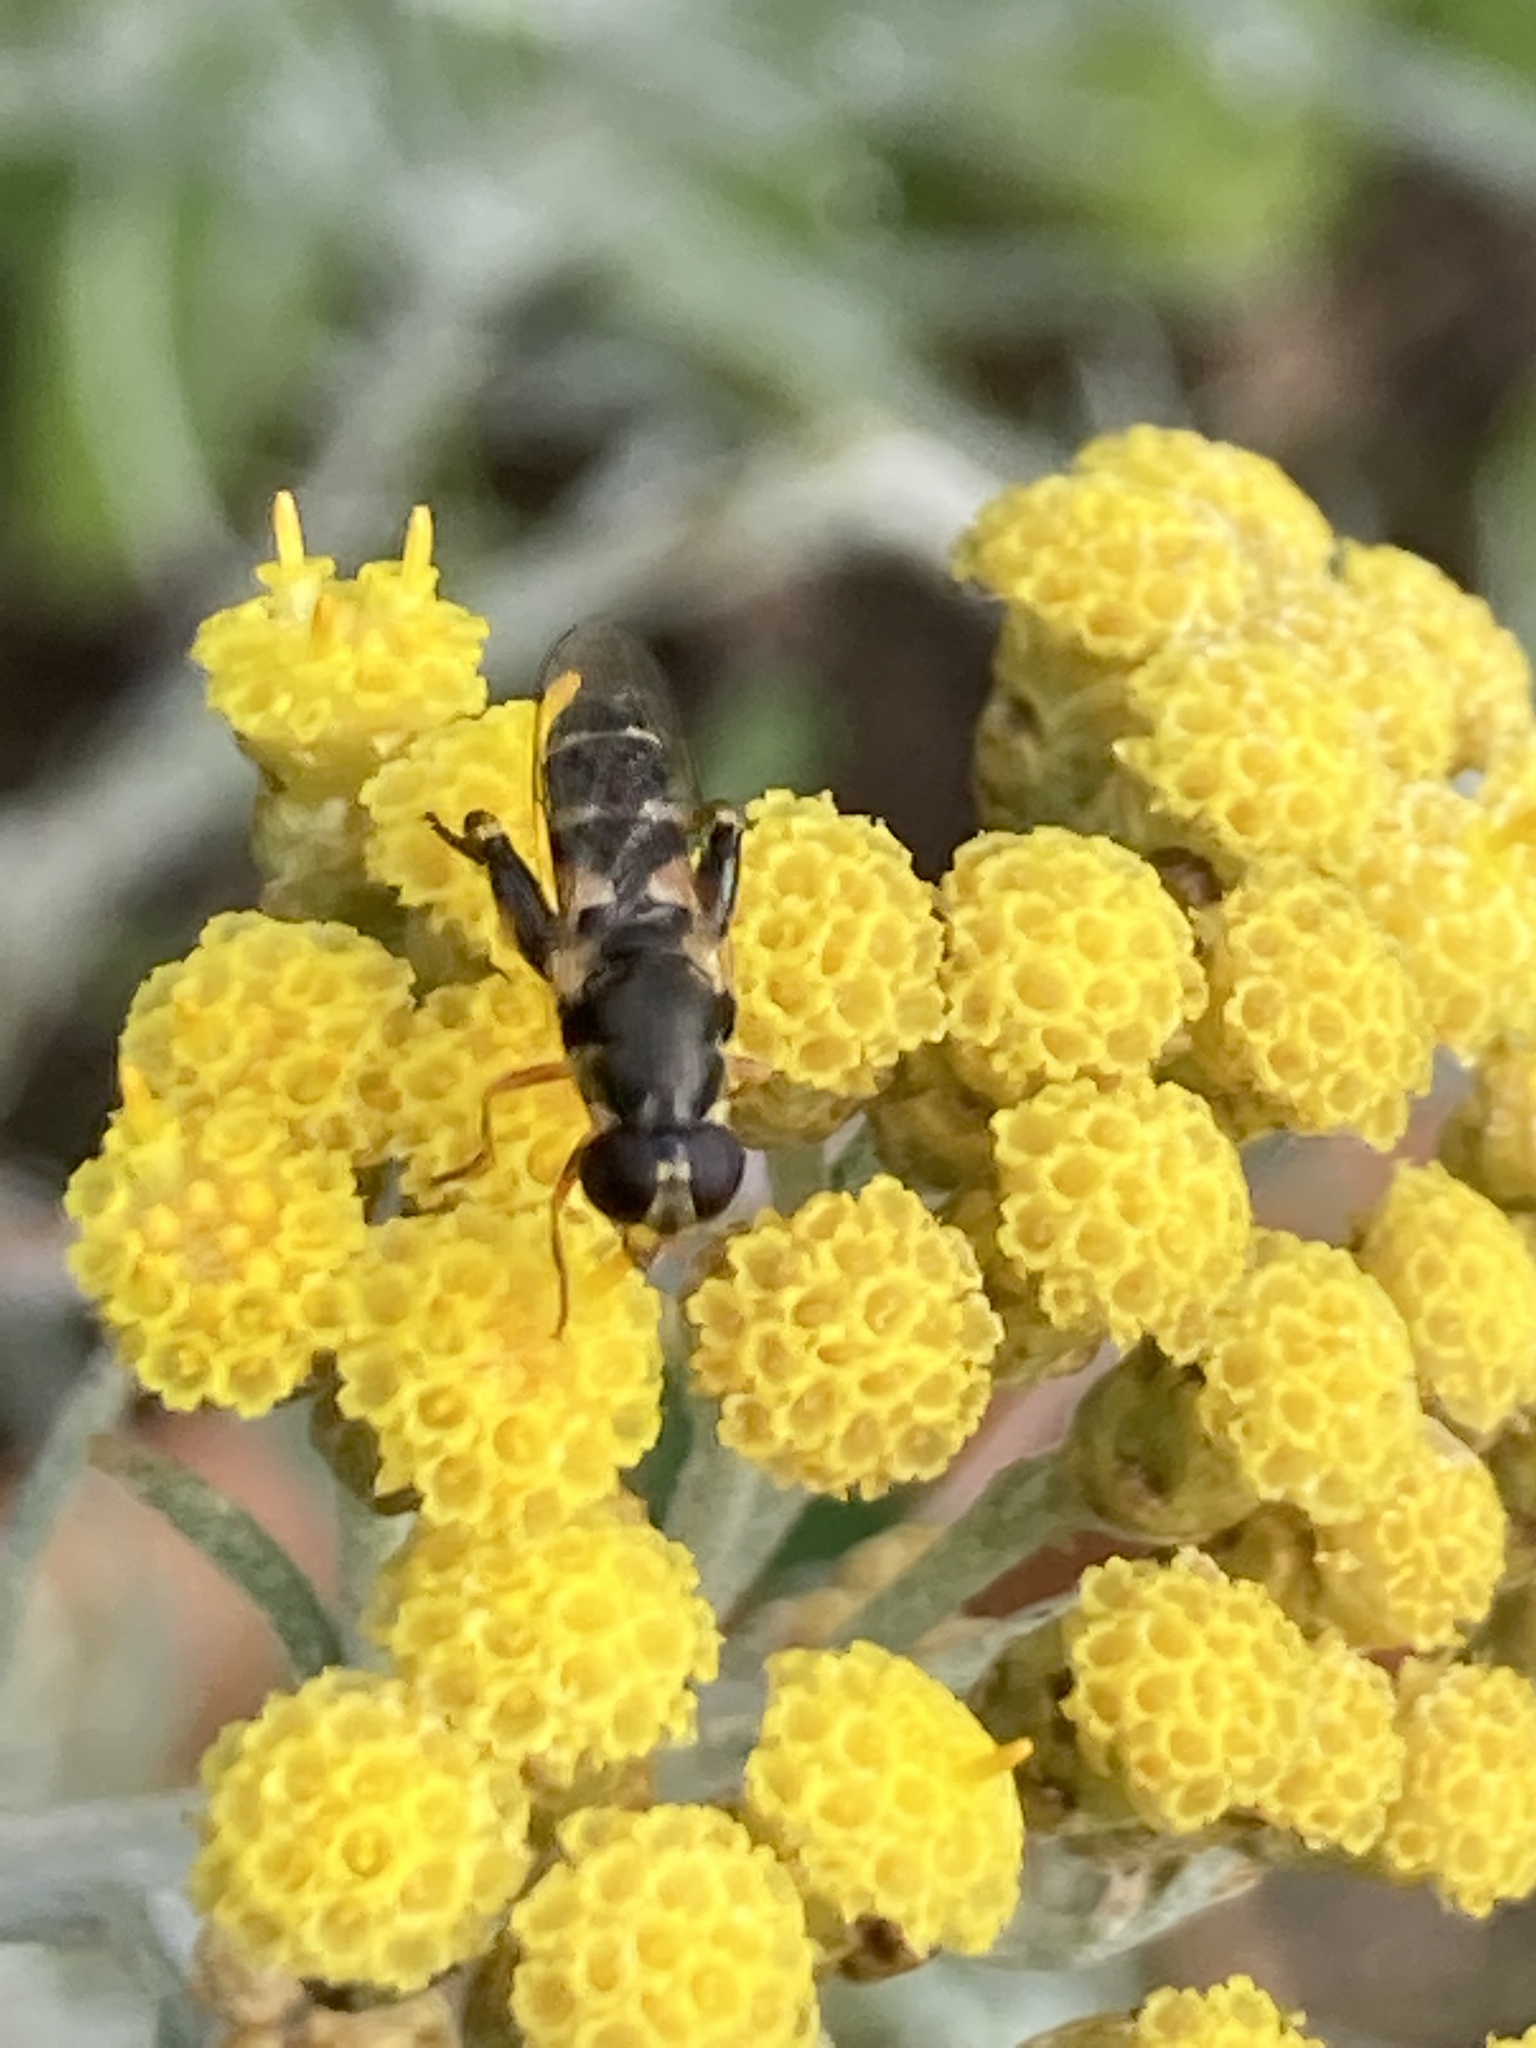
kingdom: Animalia
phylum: Arthropoda
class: Insecta
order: Diptera
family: Syrphidae
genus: Syritta
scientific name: Syritta pipiens
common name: Hover fly
